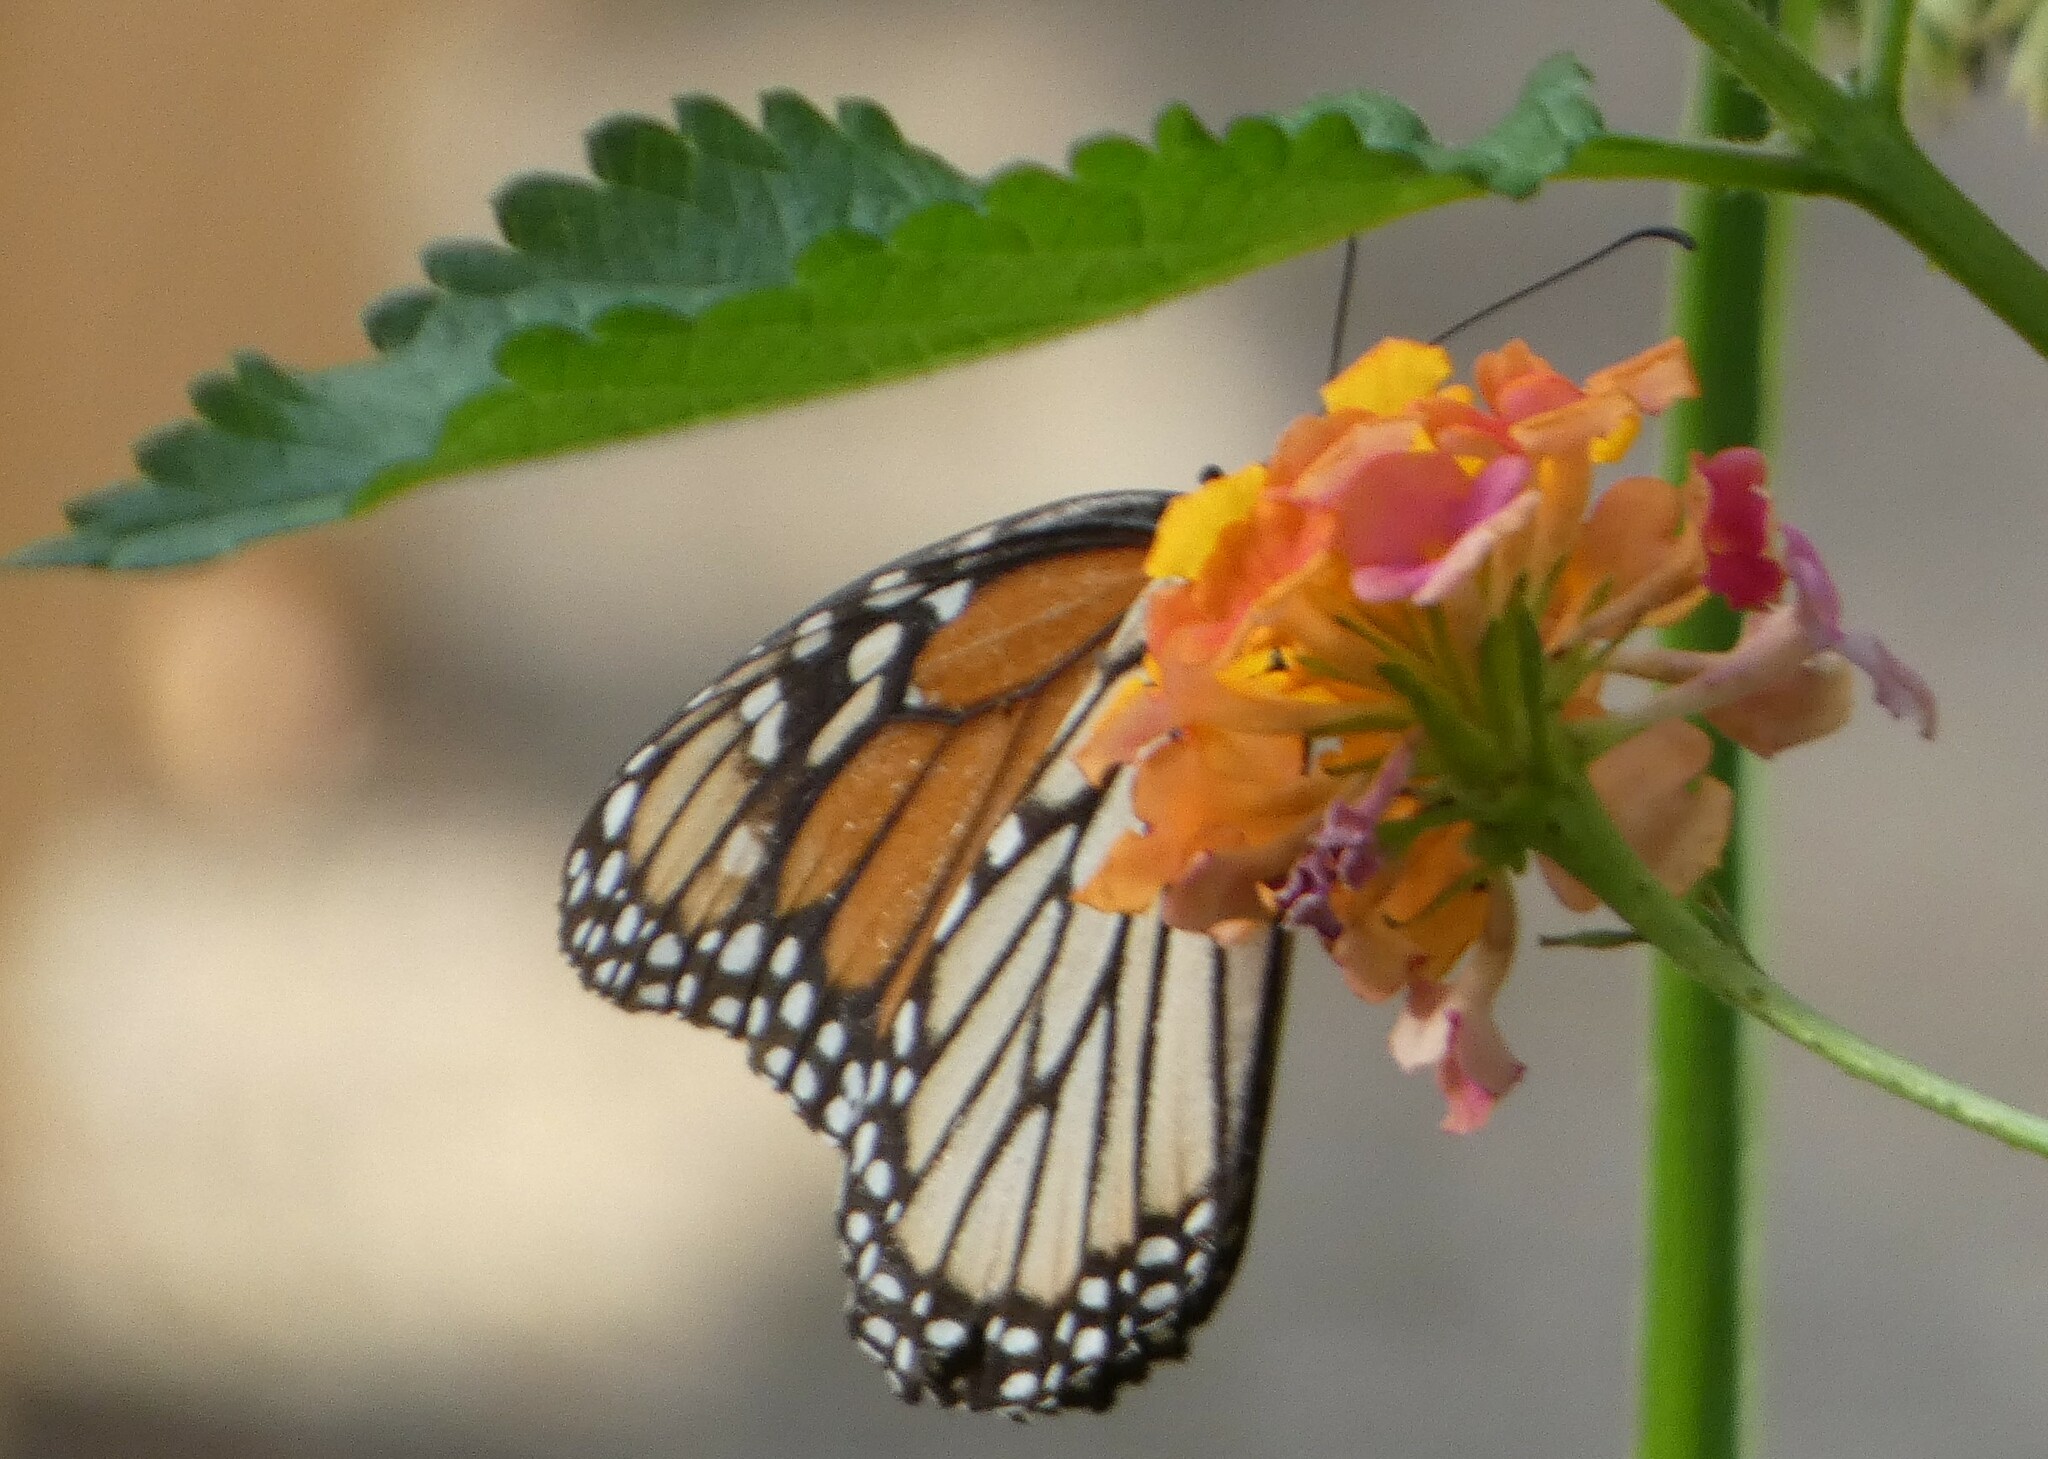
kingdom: Animalia
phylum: Arthropoda
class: Insecta
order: Lepidoptera
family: Nymphalidae
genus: Danaus
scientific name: Danaus plexippus
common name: Monarch
